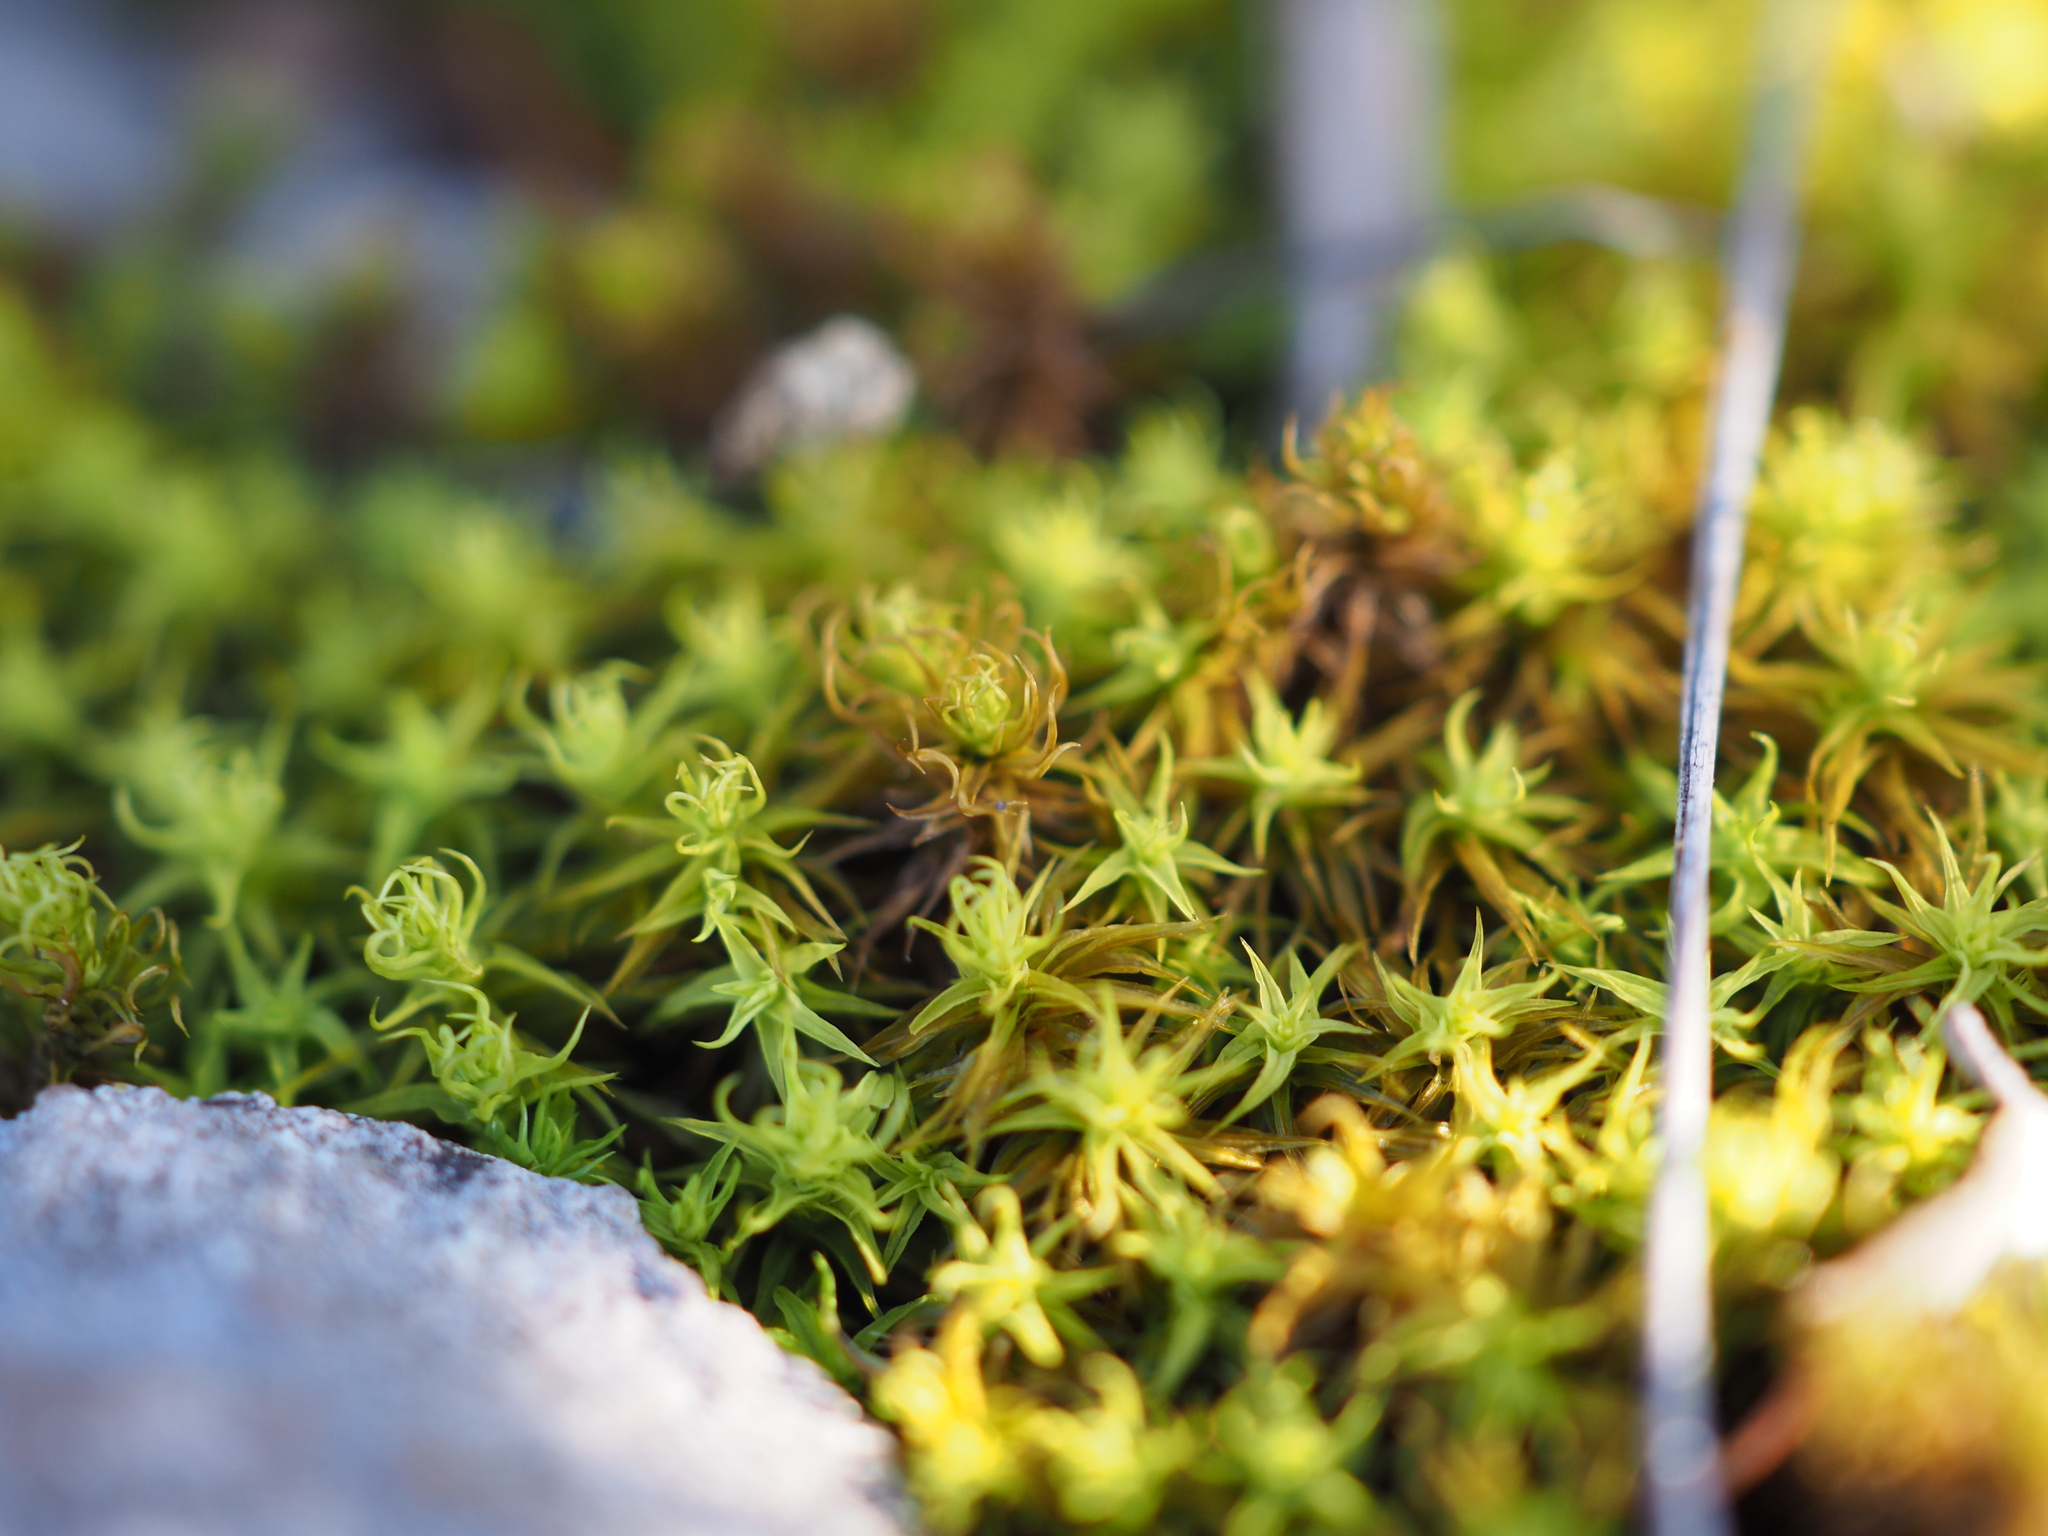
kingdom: Plantae
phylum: Bryophyta
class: Bryopsida
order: Pottiales
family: Pottiaceae
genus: Pleurochaete
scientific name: Pleurochaete squarrosa
